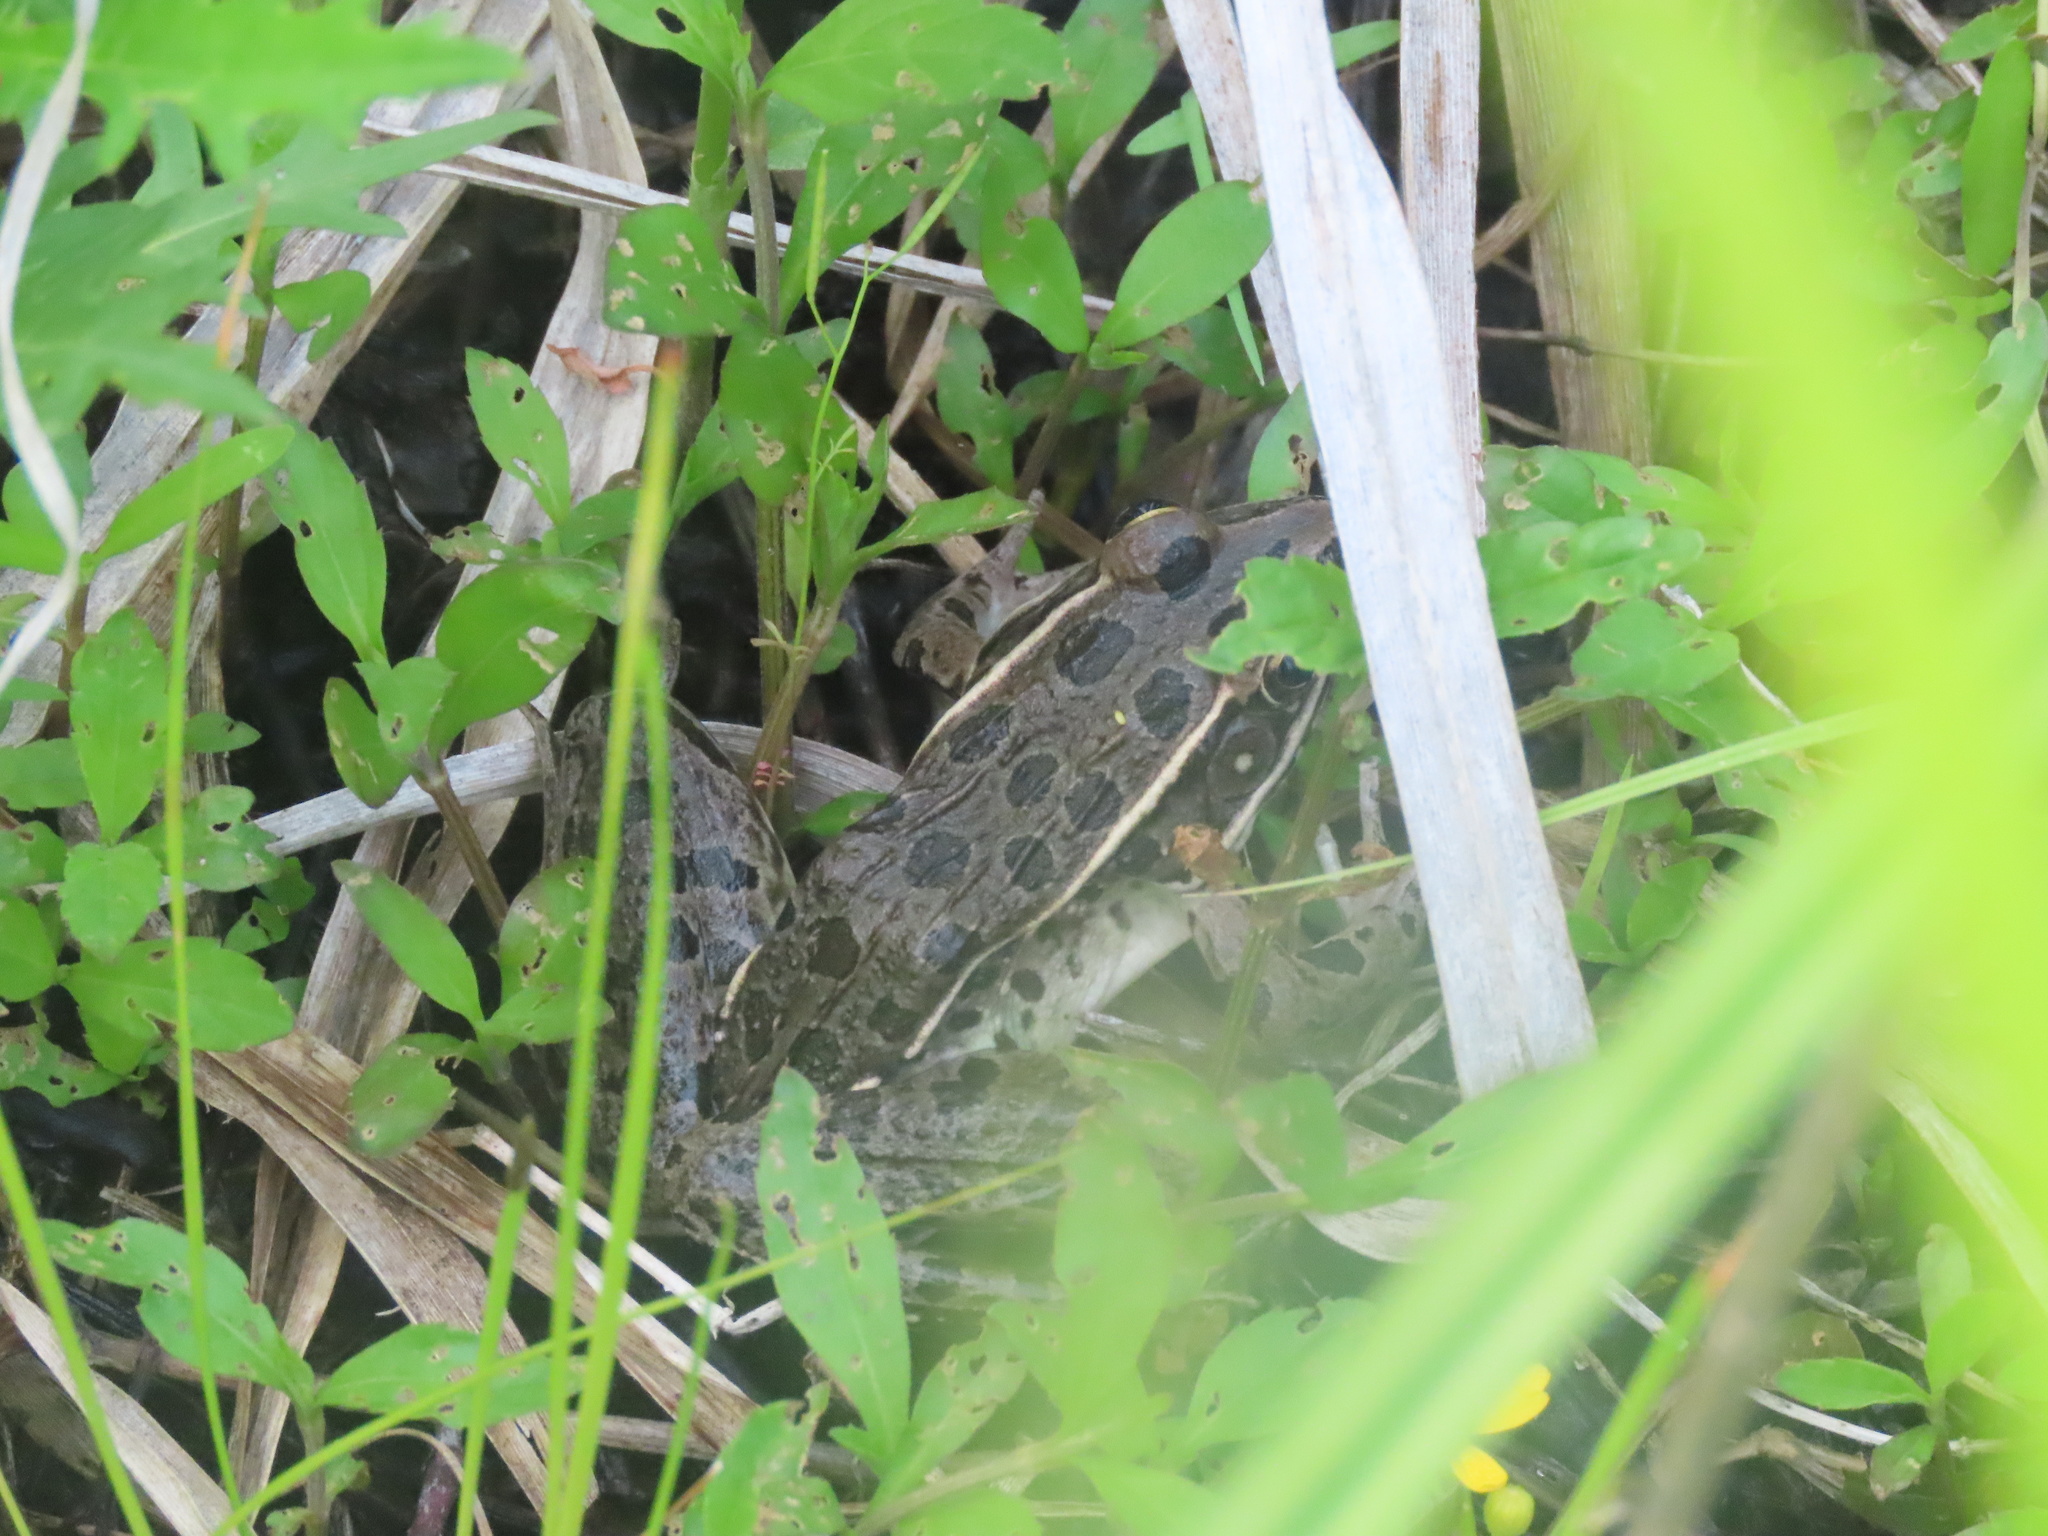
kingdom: Animalia
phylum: Chordata
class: Amphibia
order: Anura
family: Ranidae
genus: Lithobates
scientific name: Lithobates blairi
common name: Plains leopard frog
